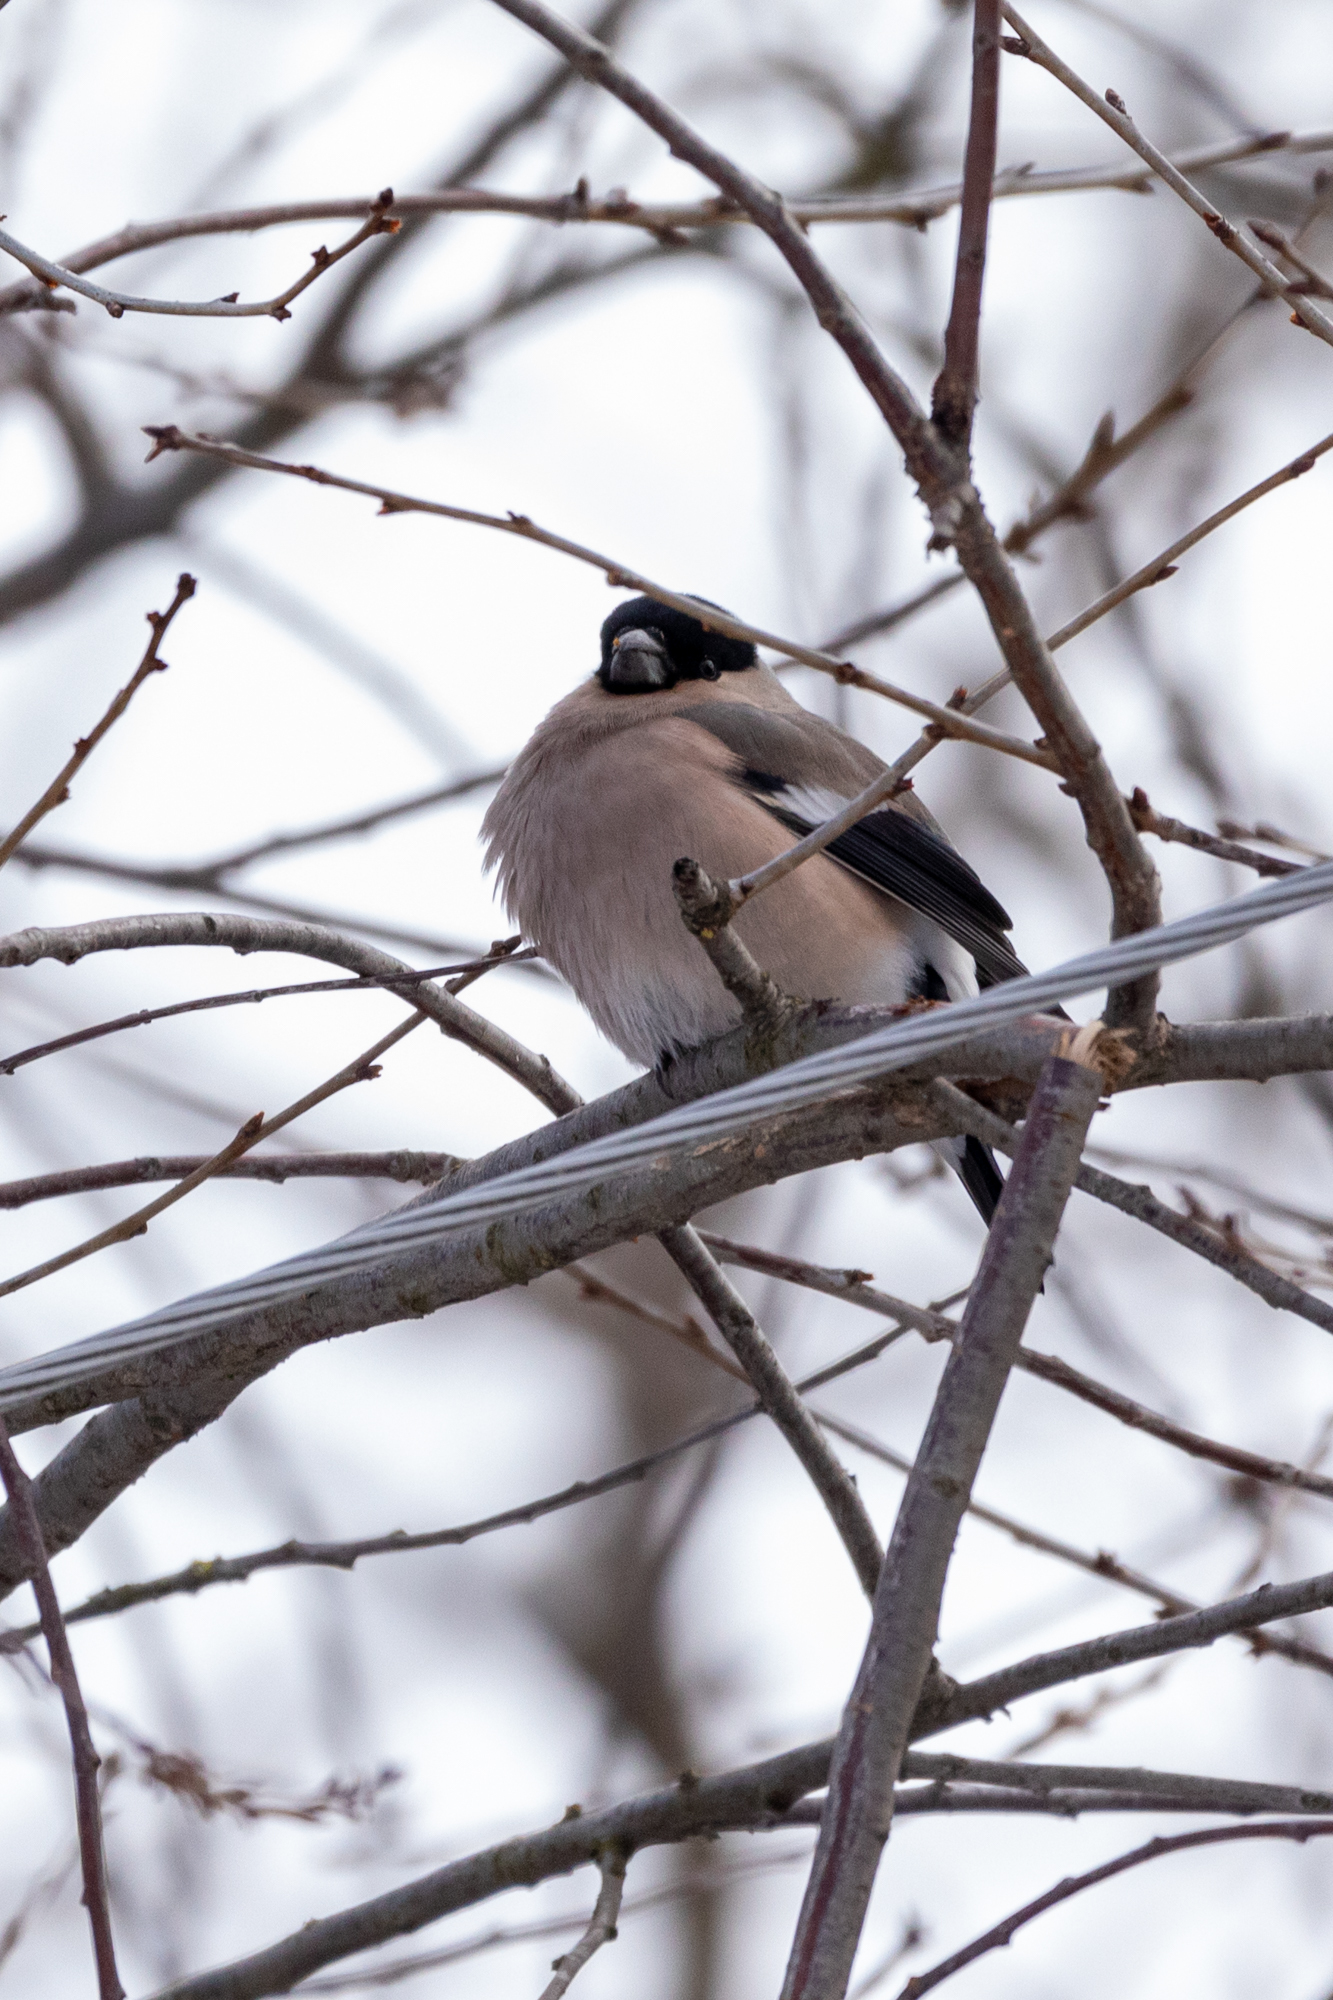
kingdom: Animalia
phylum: Chordata
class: Aves
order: Passeriformes
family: Fringillidae
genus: Pyrrhula
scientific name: Pyrrhula pyrrhula
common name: Eurasian bullfinch
